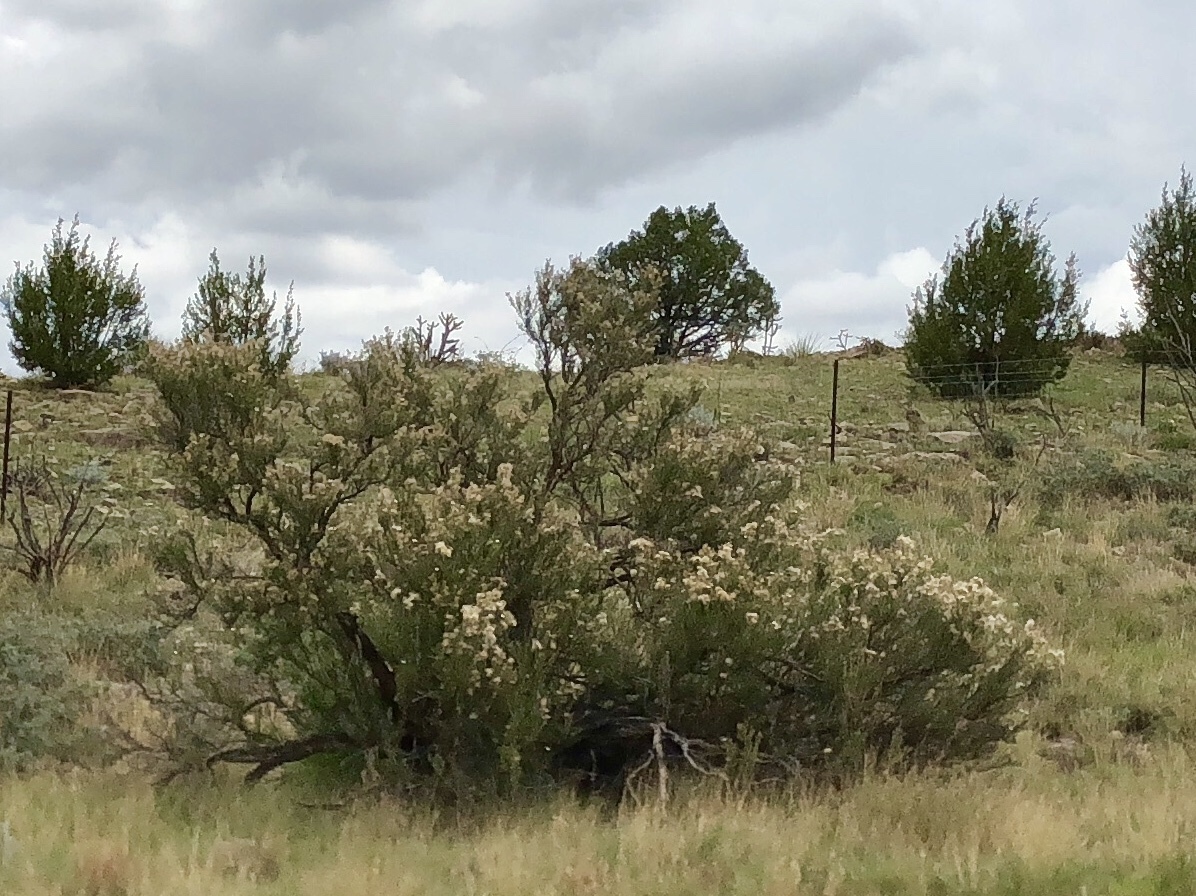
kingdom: Plantae
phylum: Tracheophyta
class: Magnoliopsida
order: Rosales
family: Rosaceae
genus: Fallugia
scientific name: Fallugia paradoxa
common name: Apache-plume
